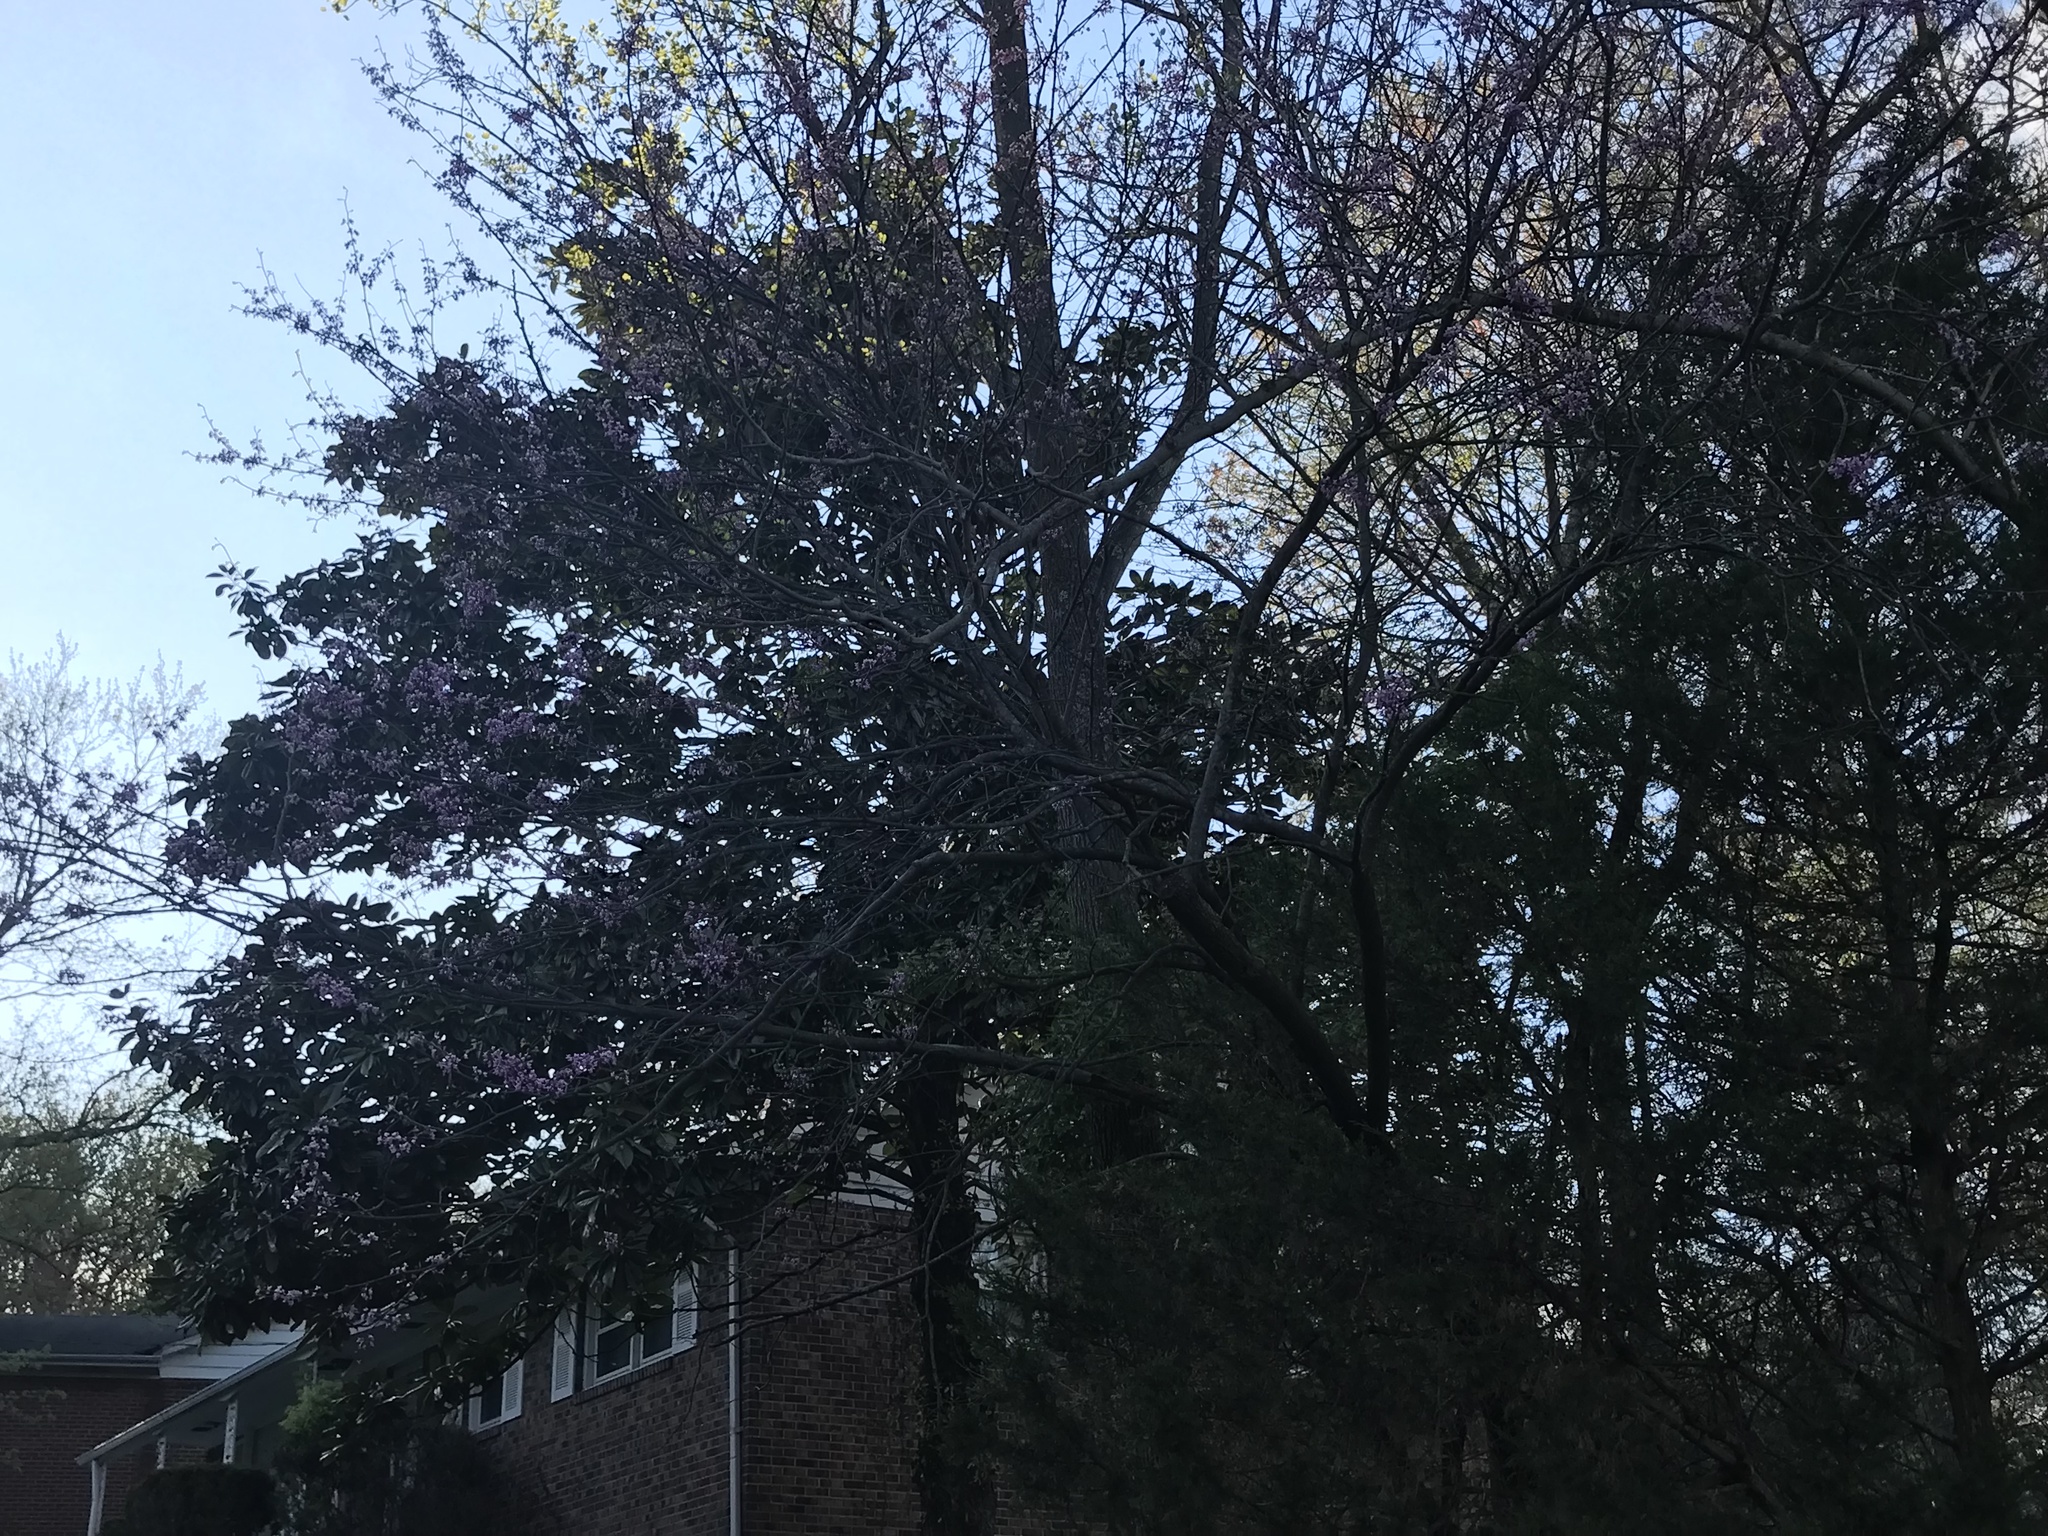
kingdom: Plantae
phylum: Tracheophyta
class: Magnoliopsida
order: Fabales
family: Fabaceae
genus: Cercis
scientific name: Cercis canadensis
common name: Eastern redbud
